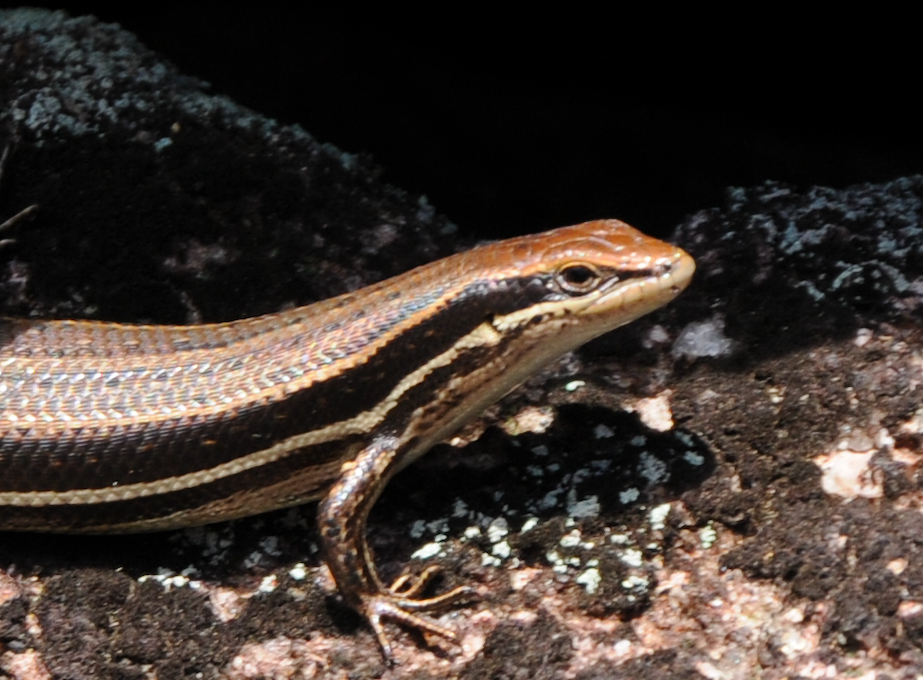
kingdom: Animalia
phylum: Chordata
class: Squamata
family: Scincidae
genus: Trachylepis
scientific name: Trachylepis gravenhorstii
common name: Gravenhorst's mabuya
